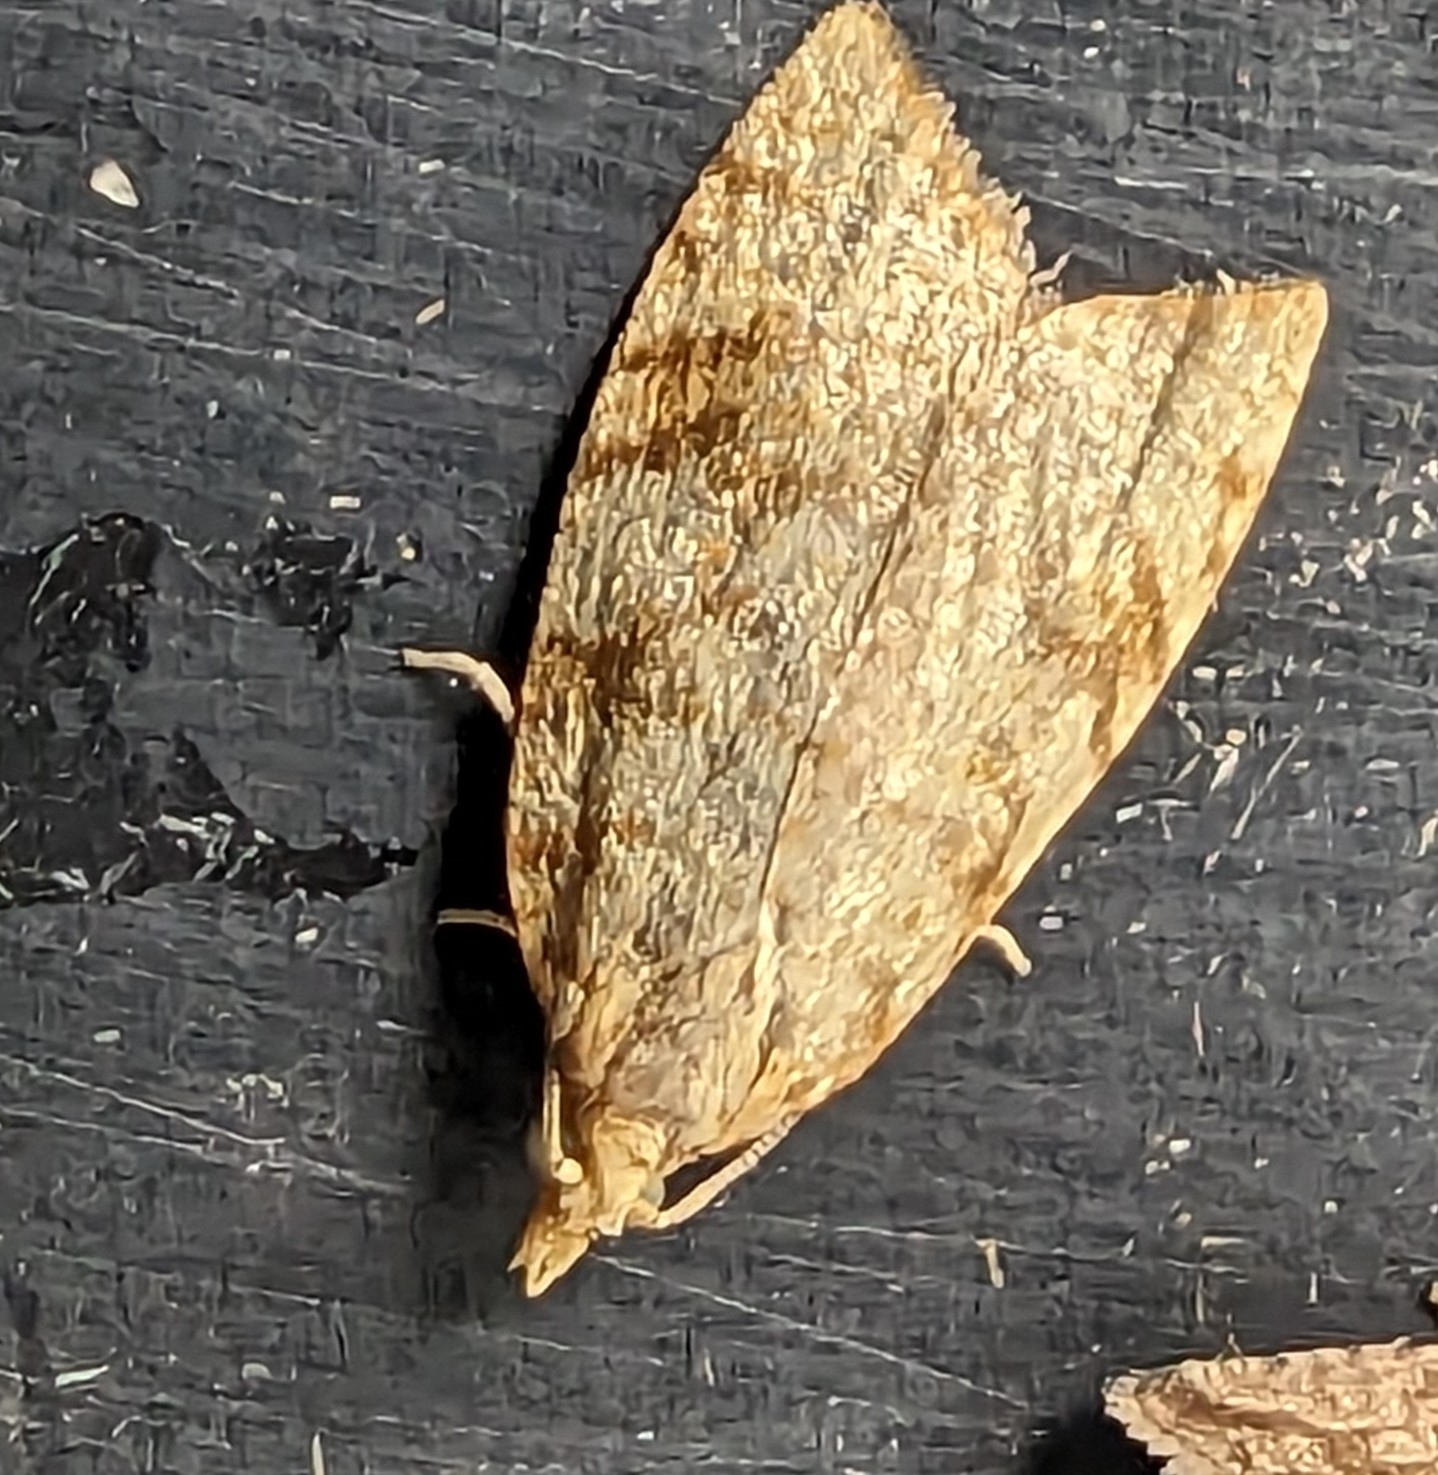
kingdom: Animalia
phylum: Arthropoda
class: Insecta
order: Lepidoptera
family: Tortricidae
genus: Aleimma
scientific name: Aleimma loeflingiana
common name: Yellow oak button
